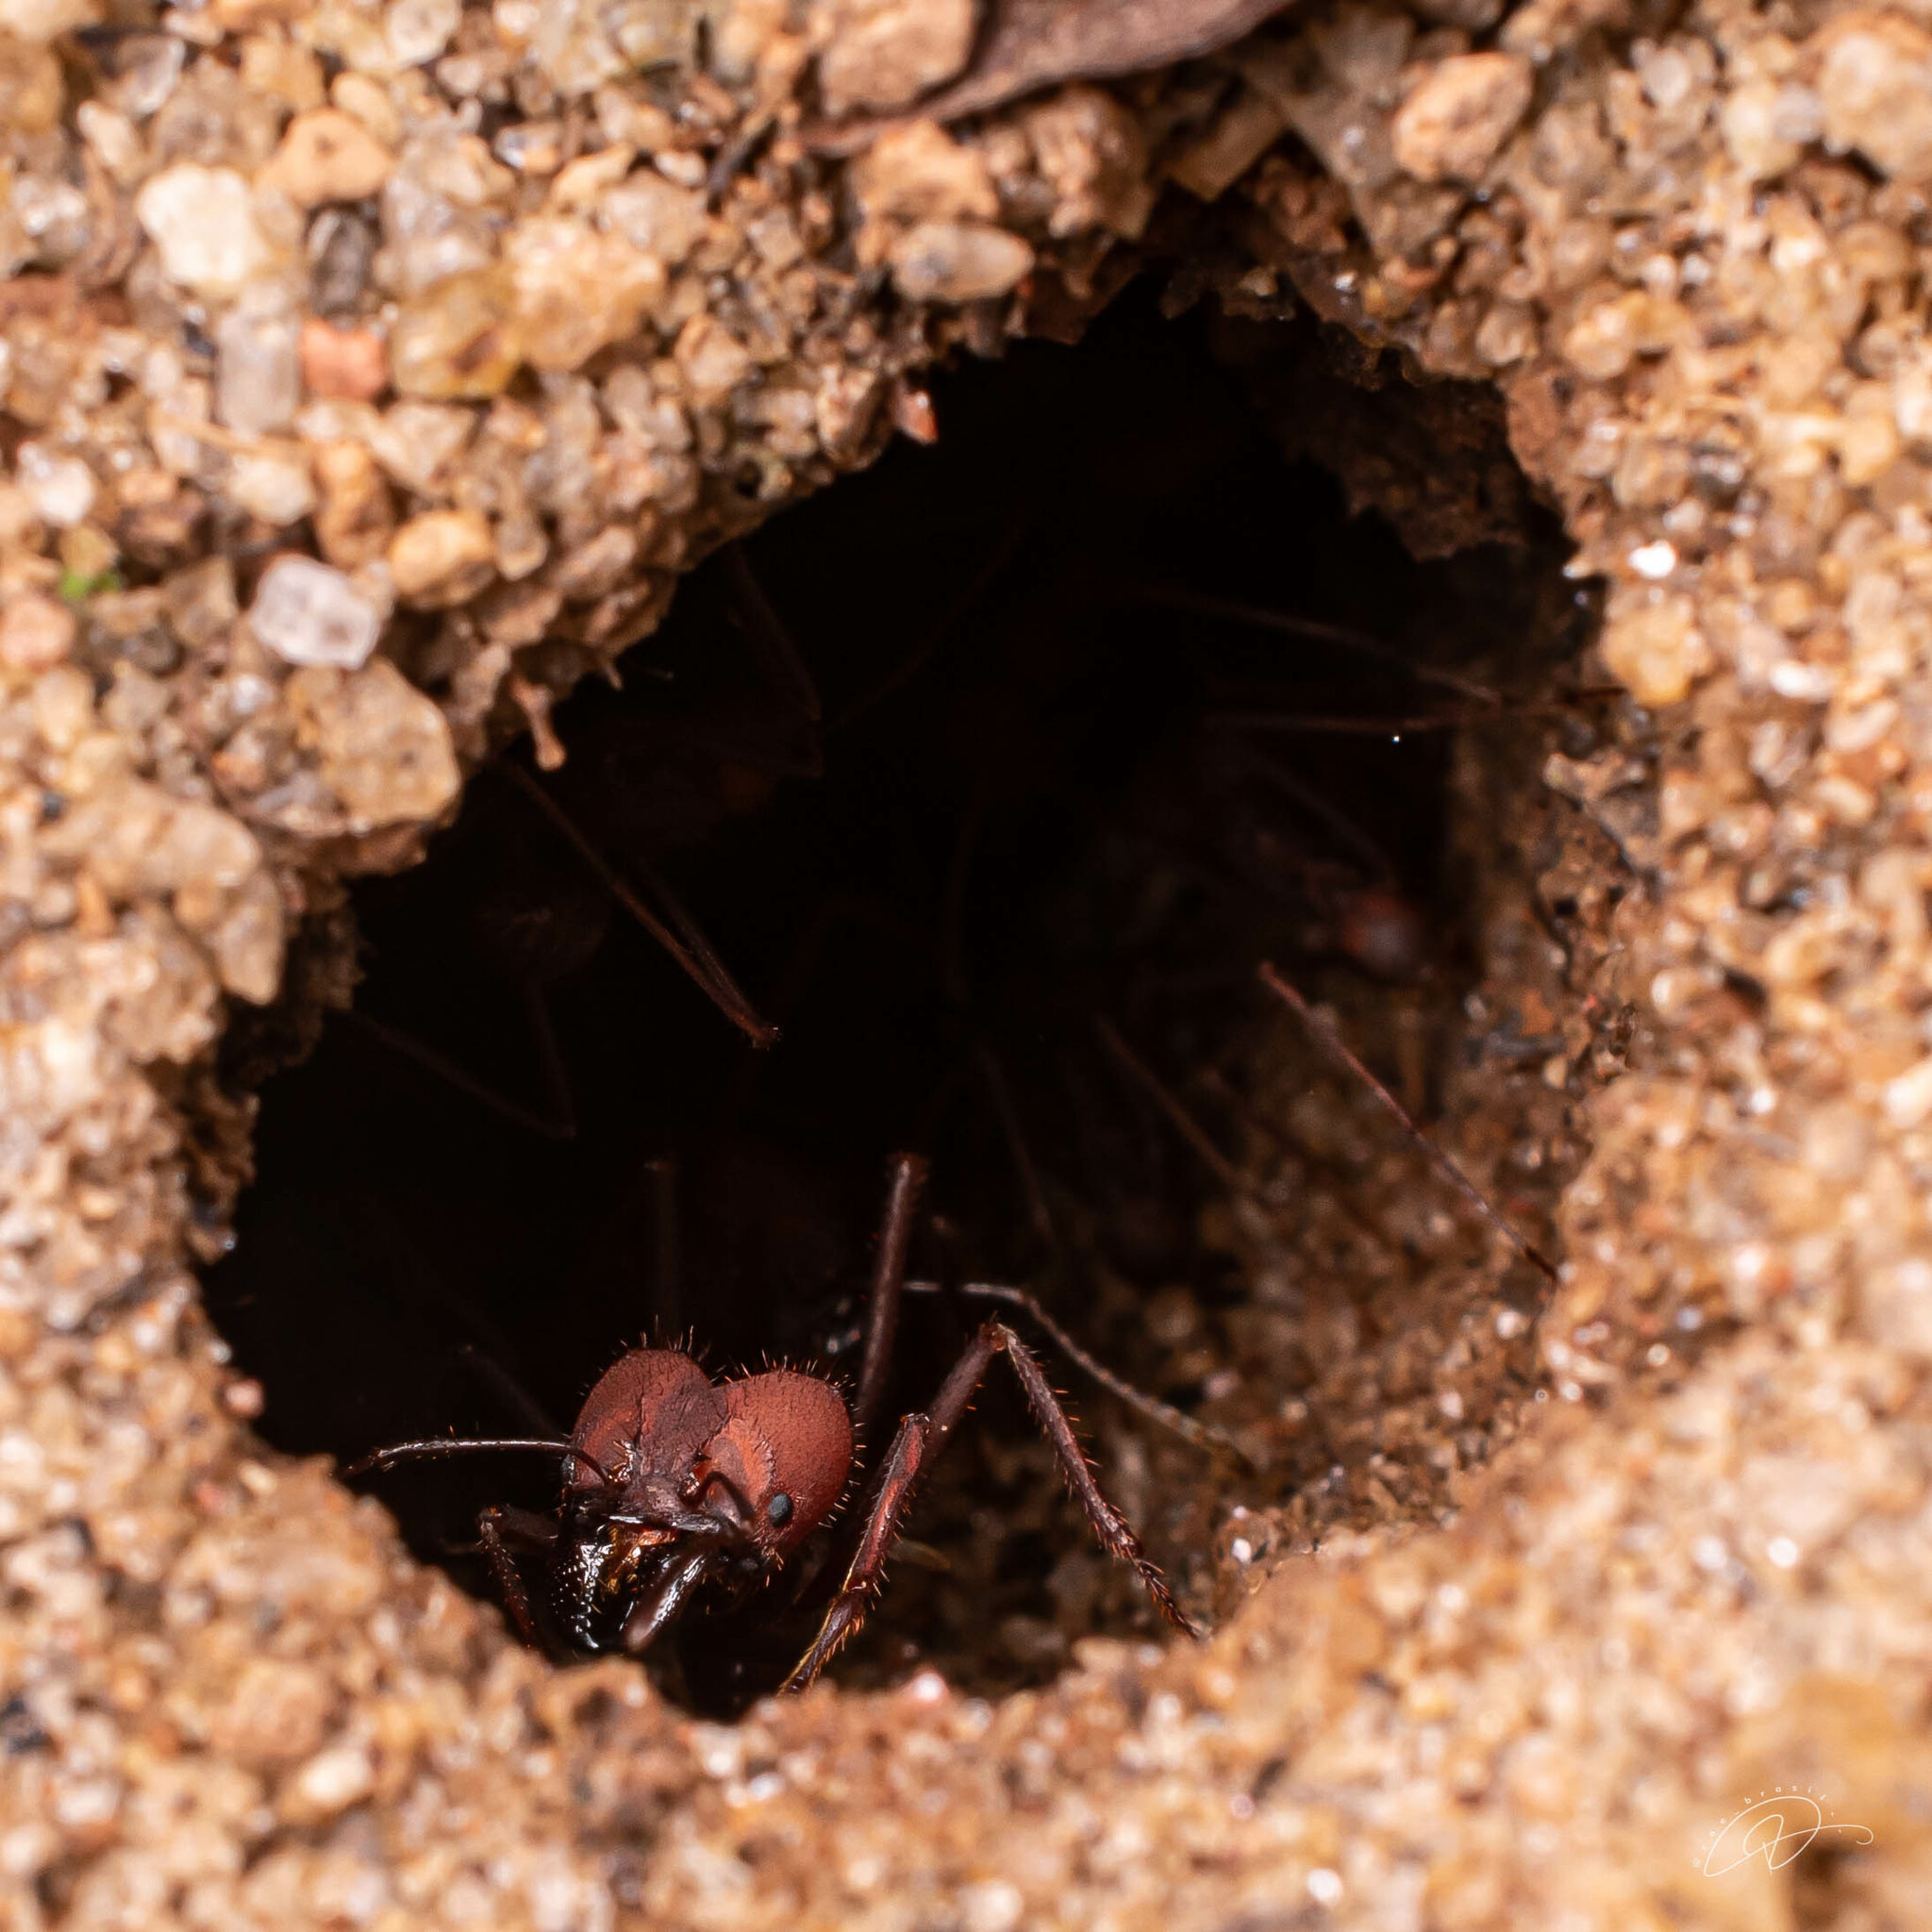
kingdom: Animalia
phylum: Arthropoda
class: Insecta
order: Hymenoptera
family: Formicidae
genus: Atta
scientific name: Atta
